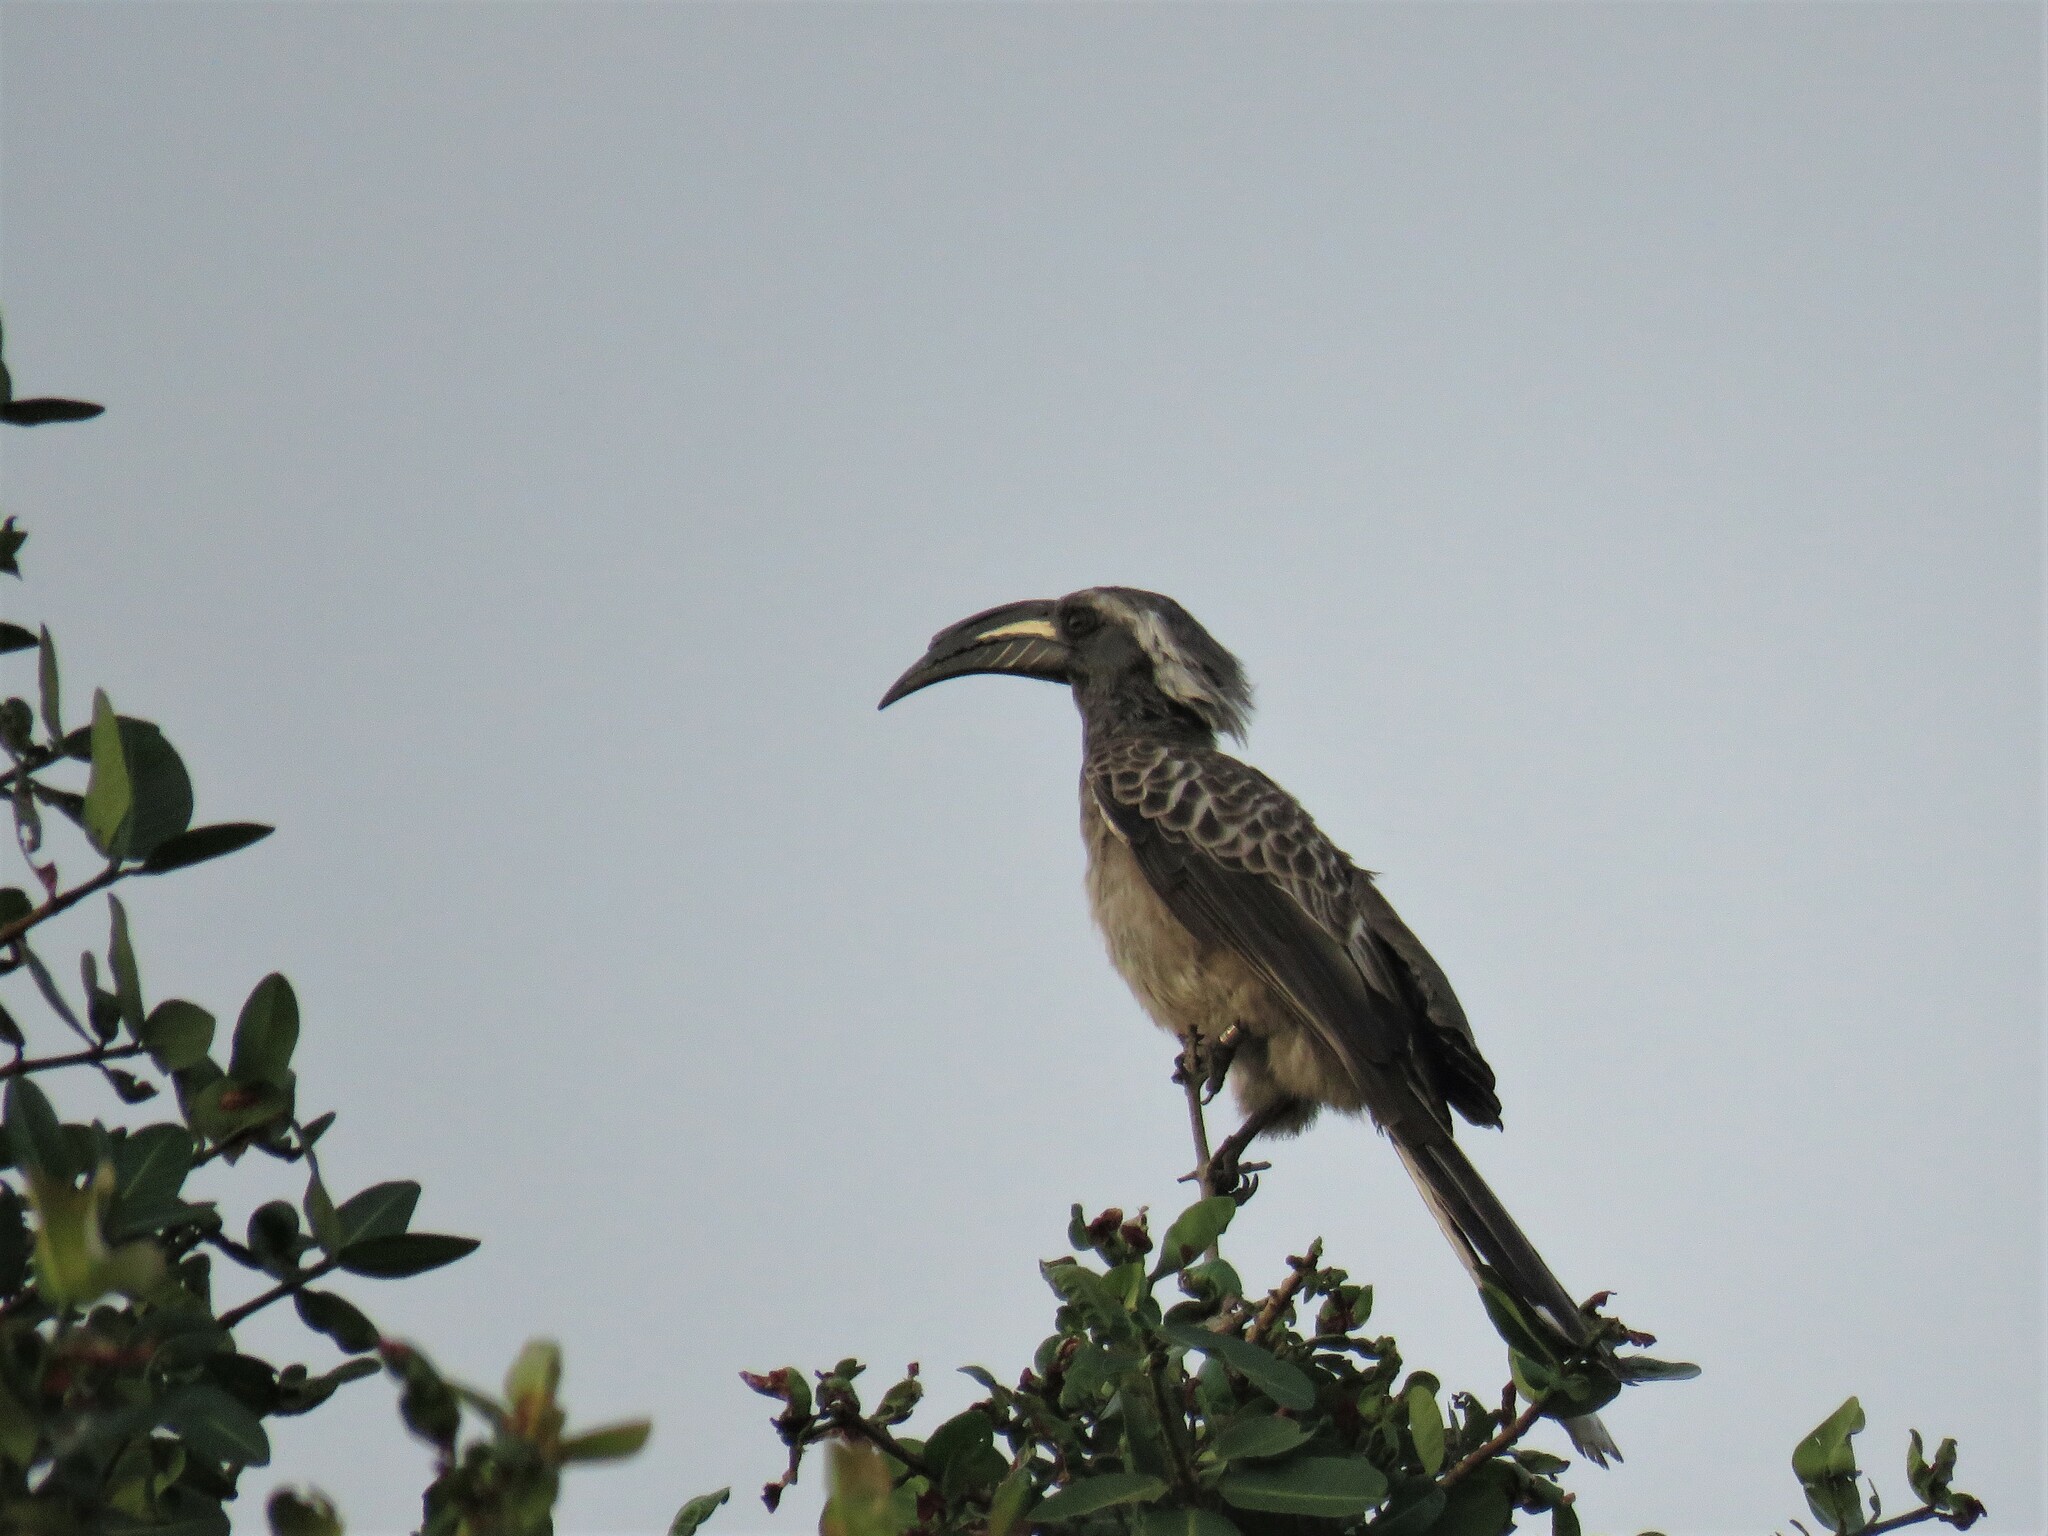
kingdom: Animalia
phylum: Chordata
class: Aves
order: Bucerotiformes
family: Bucerotidae
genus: Lophoceros
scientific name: Lophoceros nasutus
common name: African grey hornbill
